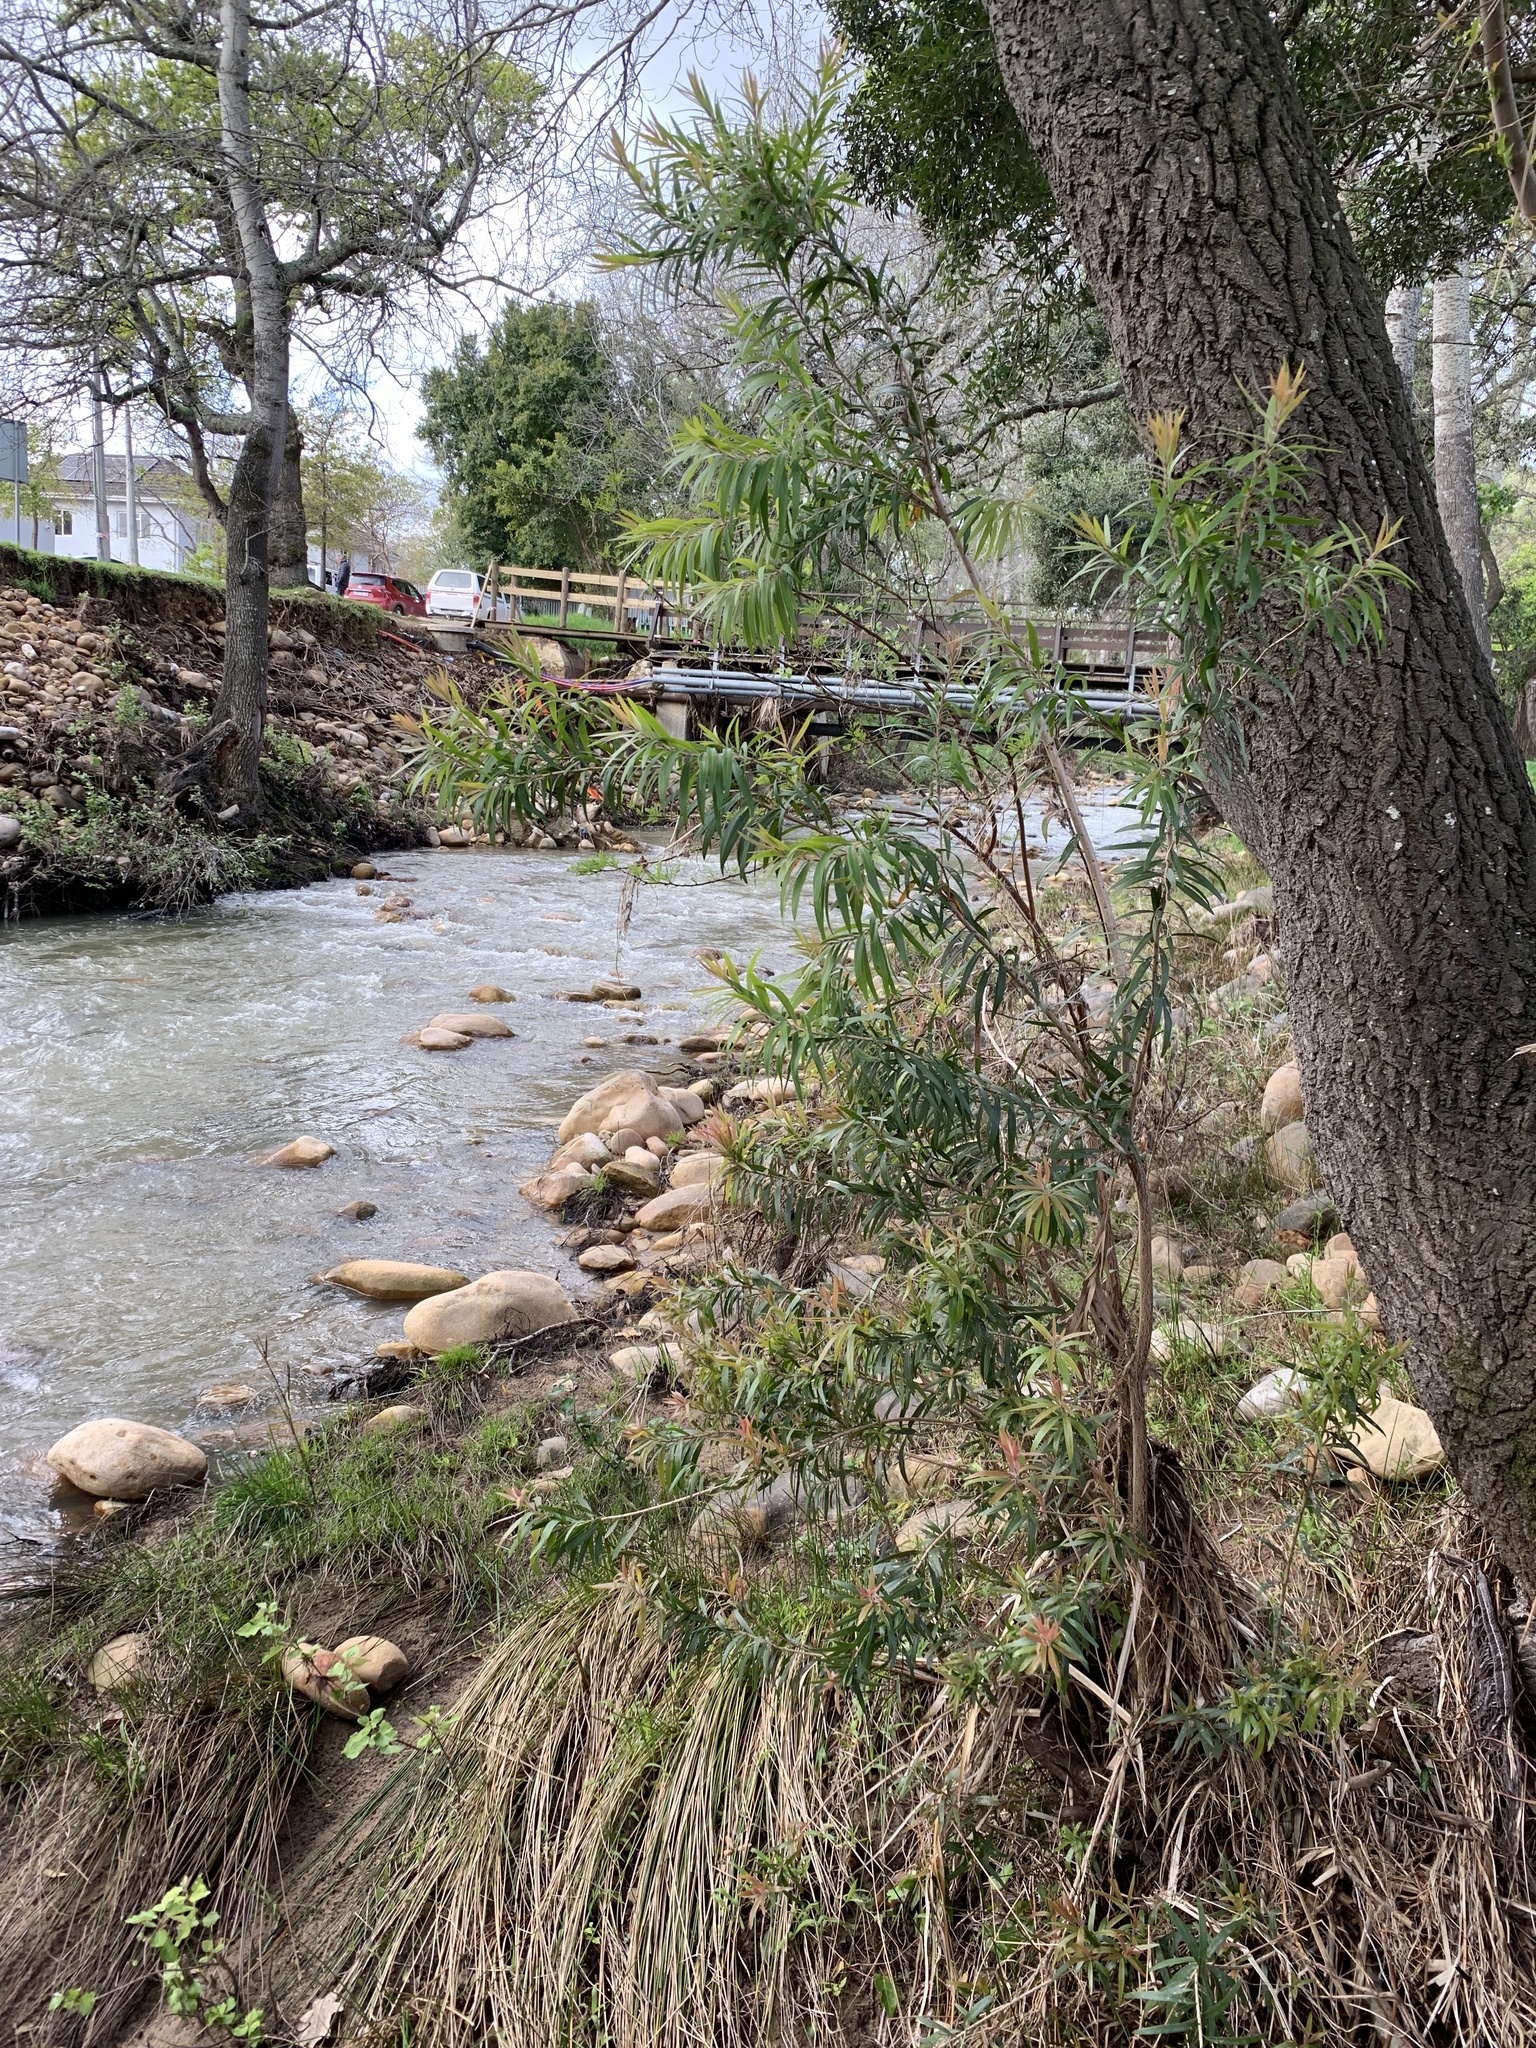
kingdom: Plantae
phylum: Tracheophyta
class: Magnoliopsida
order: Myrtales
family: Myrtaceae
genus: Callistemon
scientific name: Callistemon viminalis
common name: Drooping bottlebrush
